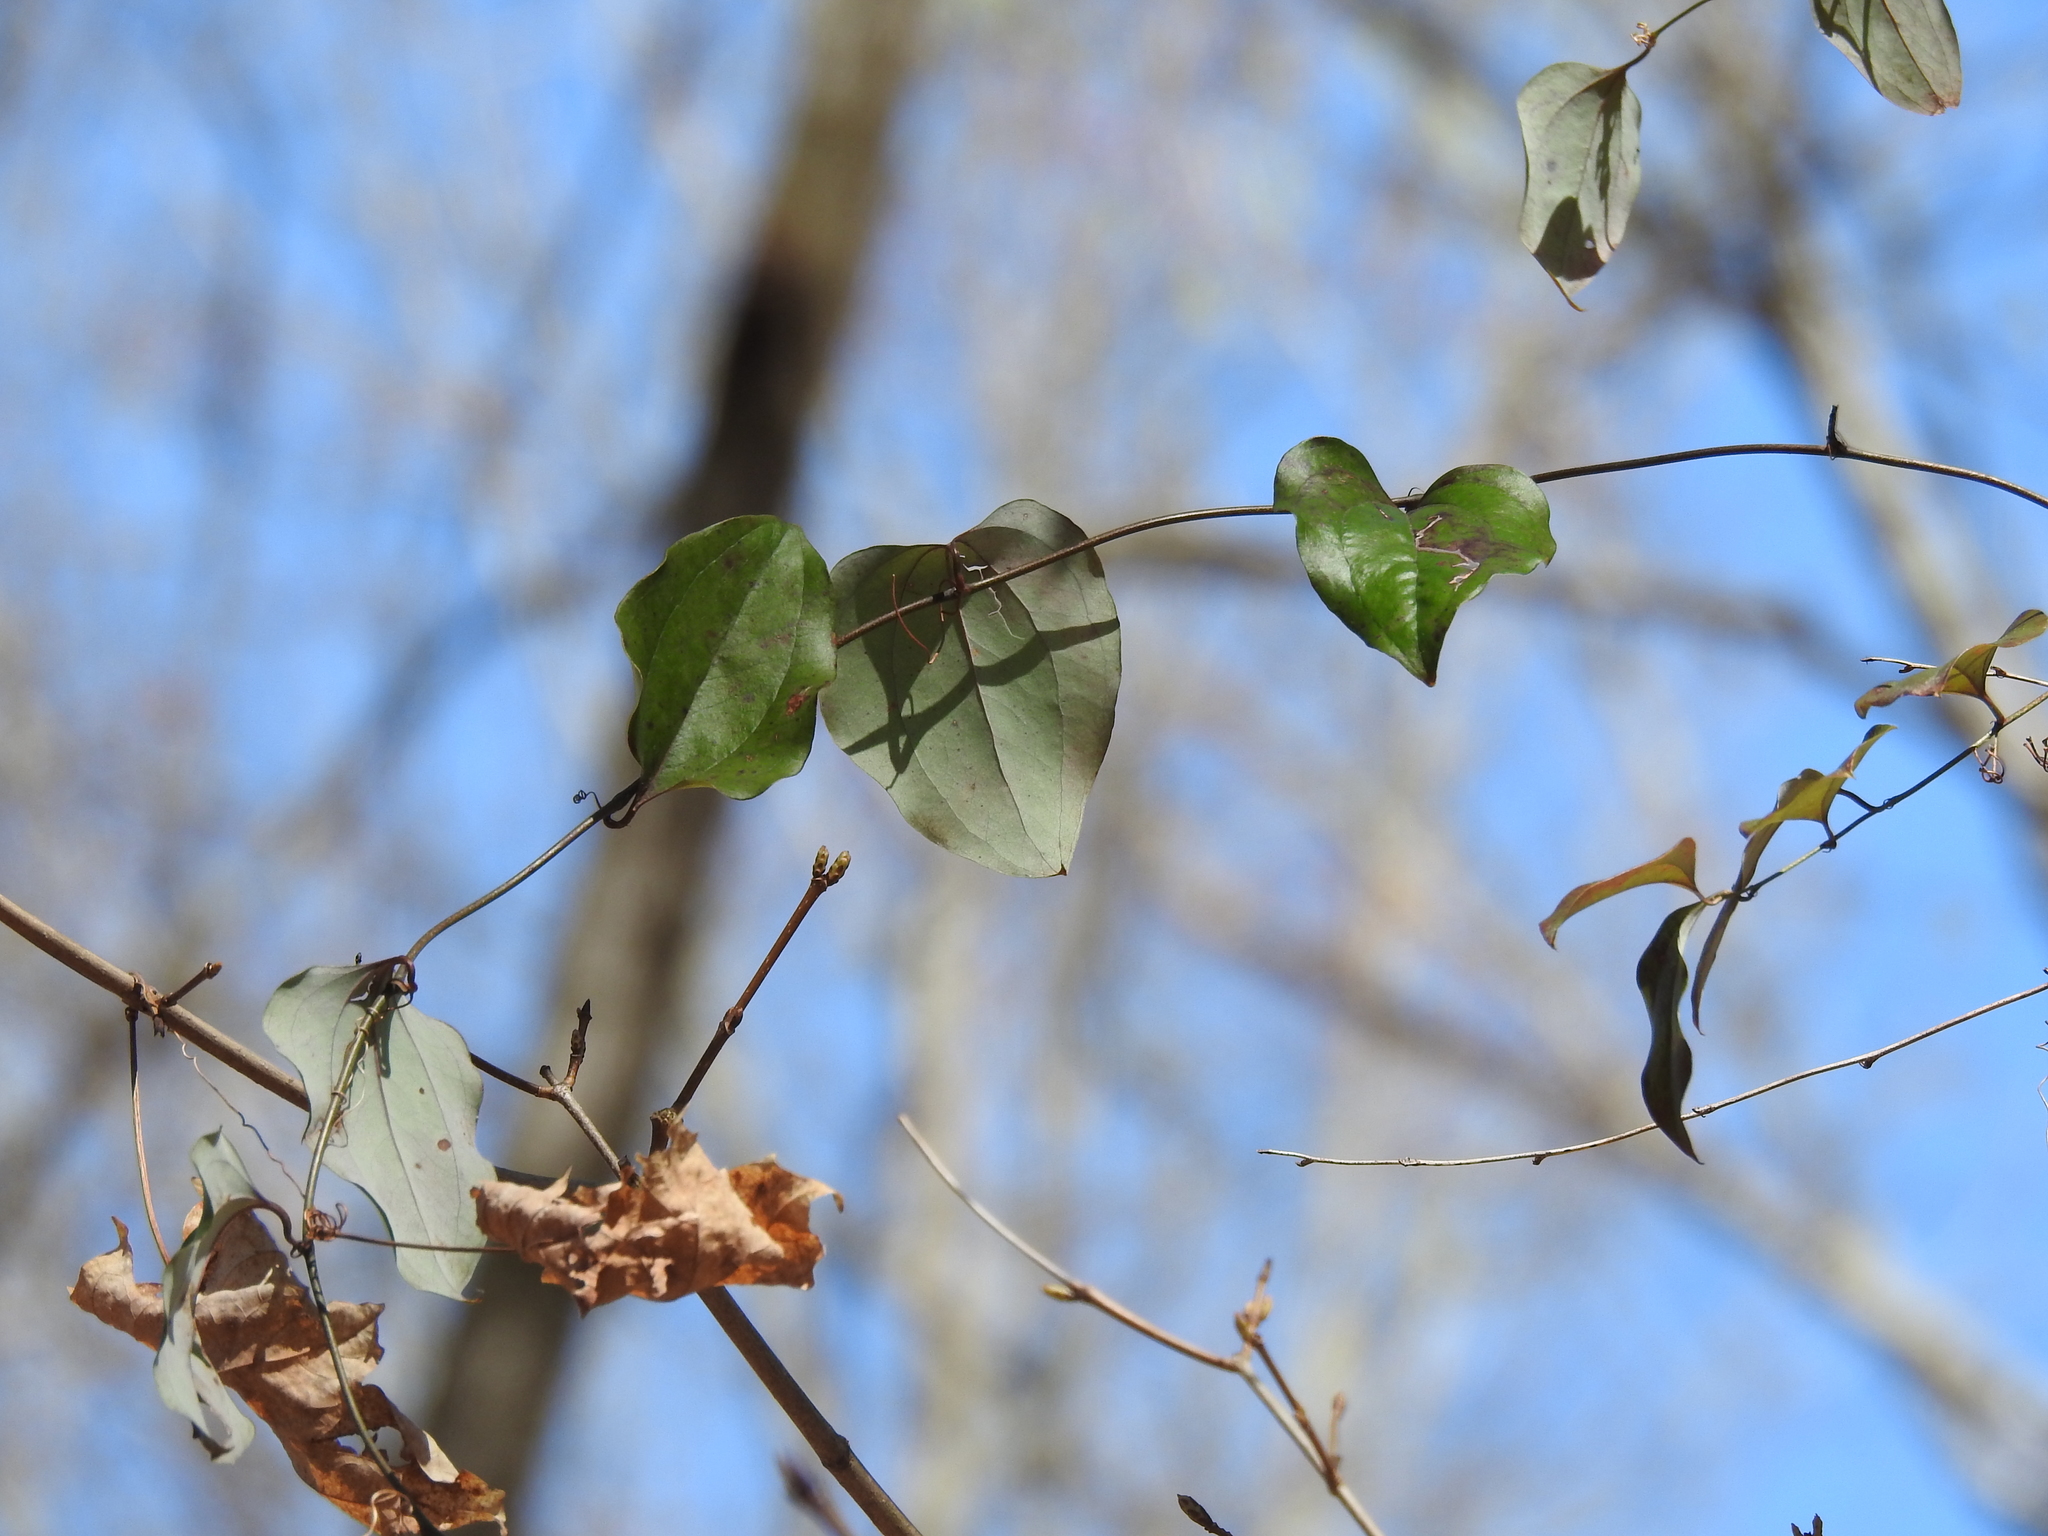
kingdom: Plantae
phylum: Tracheophyta
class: Liliopsida
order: Liliales
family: Smilacaceae
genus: Smilax
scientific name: Smilax glauca
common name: Cat greenbrier
